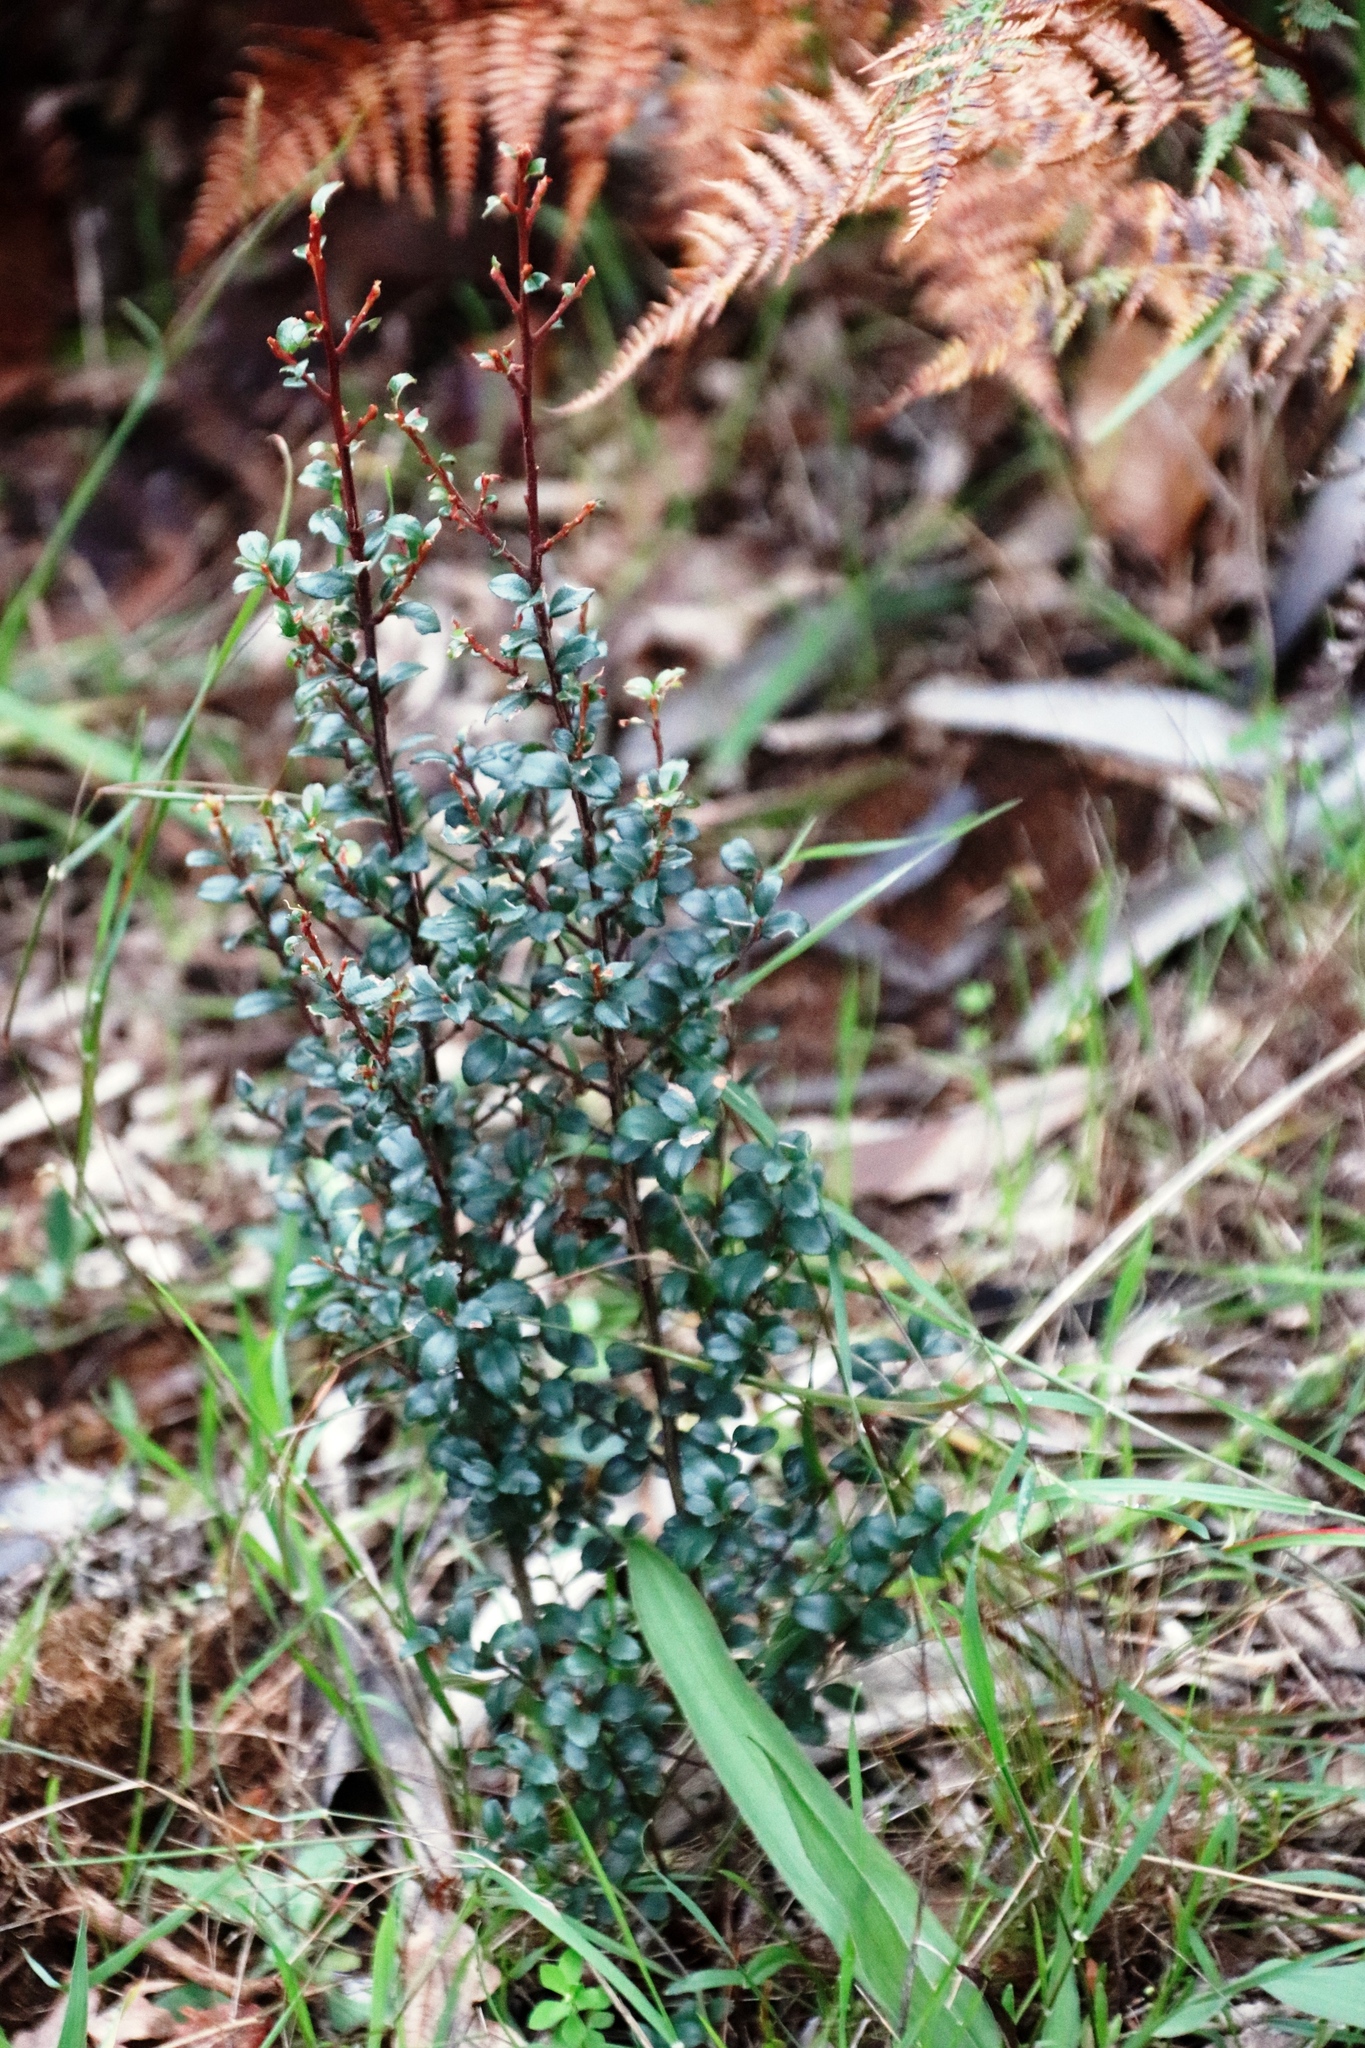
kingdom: Plantae
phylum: Tracheophyta
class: Magnoliopsida
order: Ericales
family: Primulaceae
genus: Myrsine
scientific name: Myrsine africana
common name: African-boxwood
